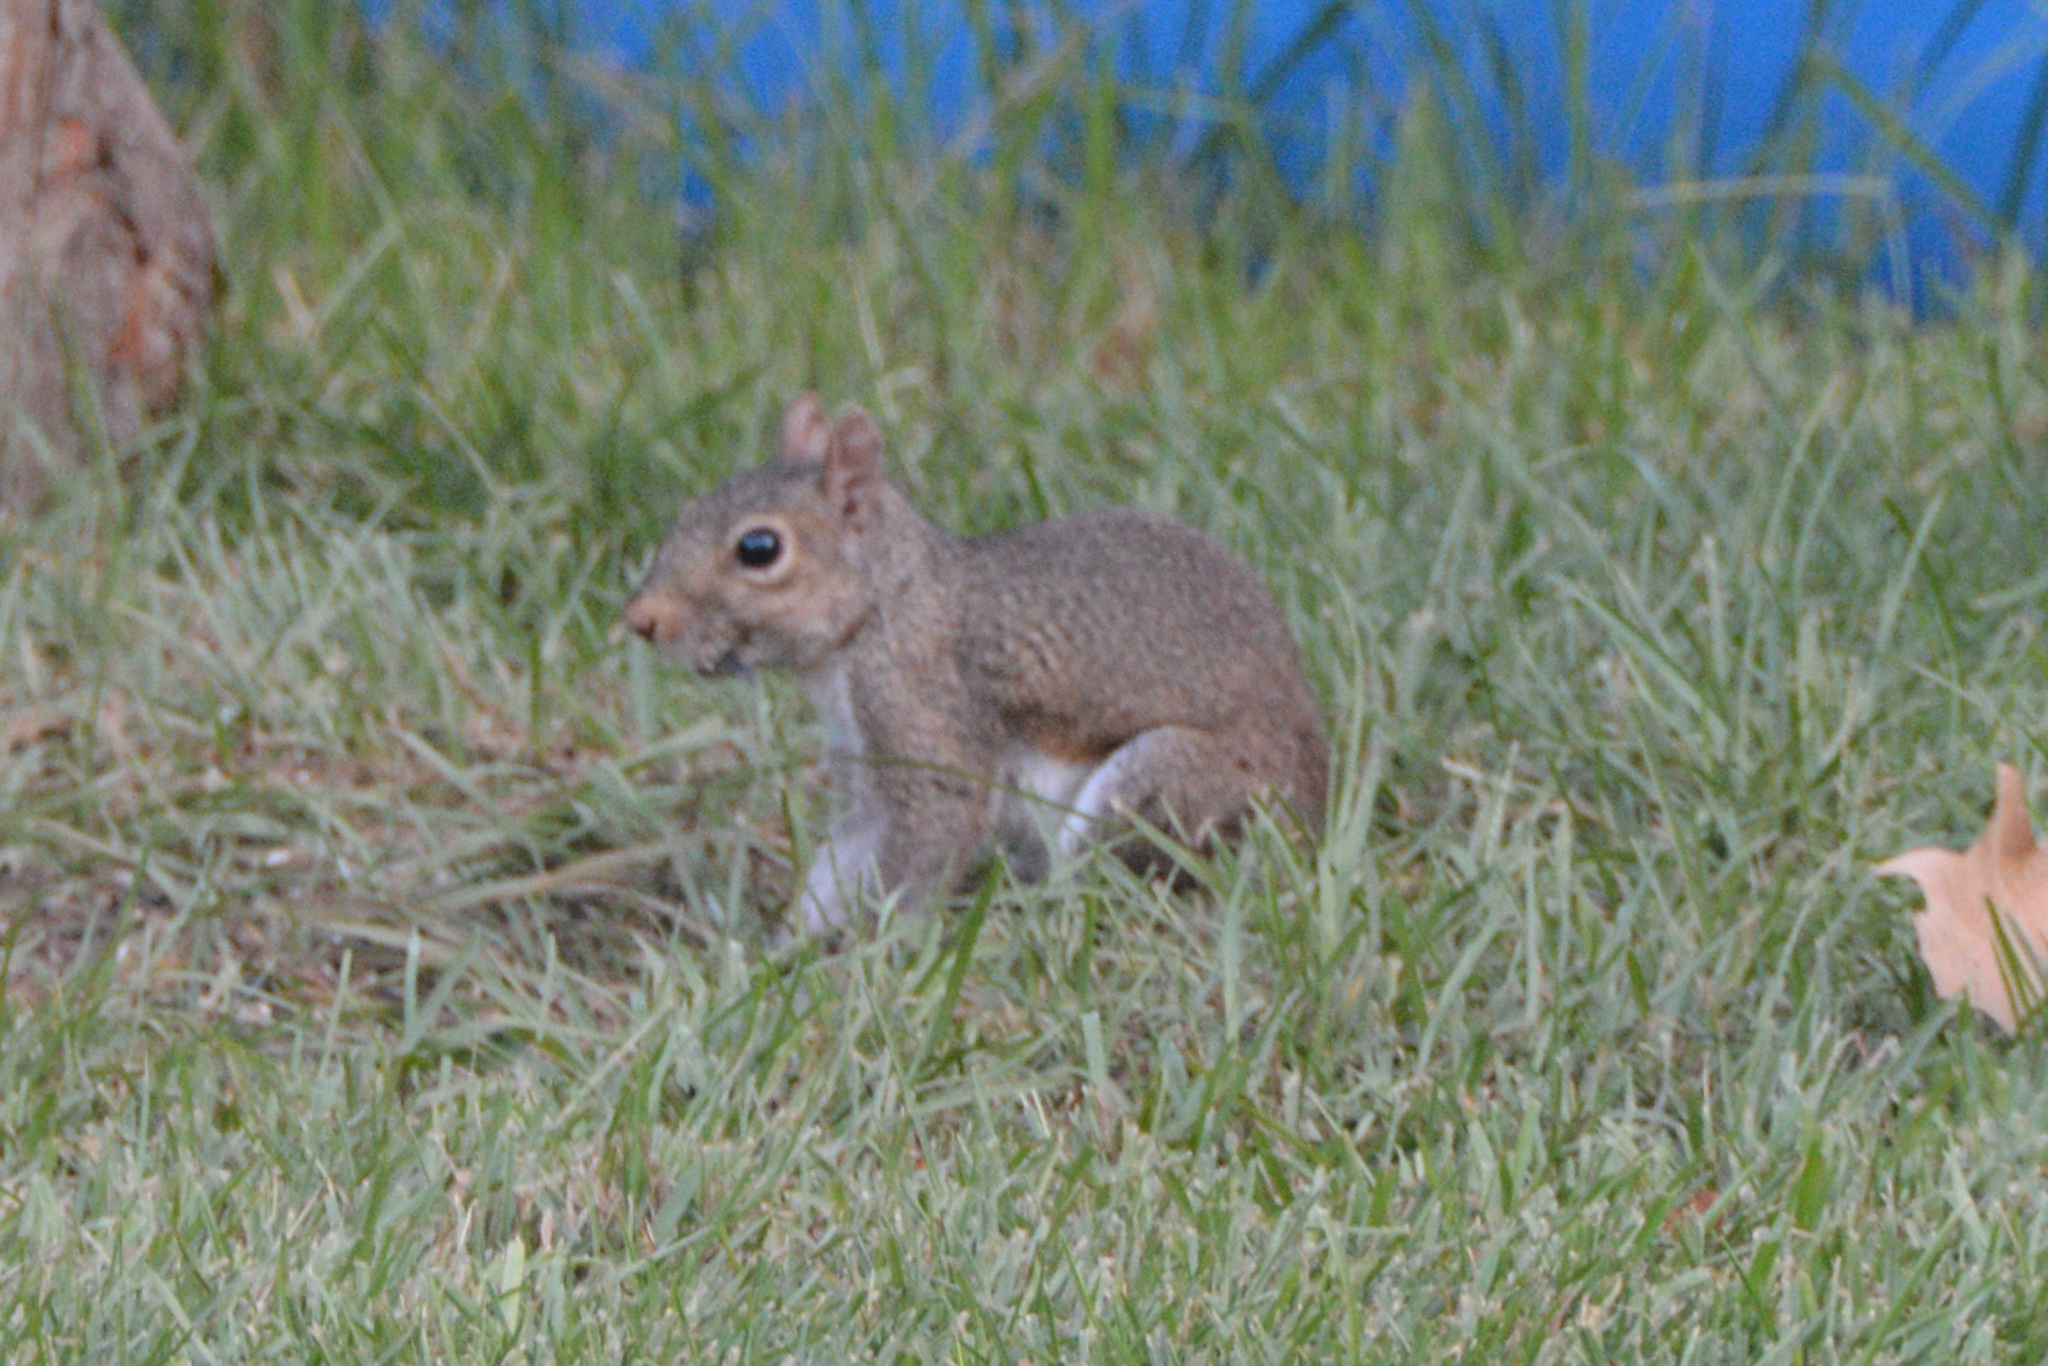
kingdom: Animalia
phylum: Chordata
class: Mammalia
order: Rodentia
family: Sciuridae
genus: Sciurus
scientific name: Sciurus carolinensis
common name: Eastern gray squirrel
